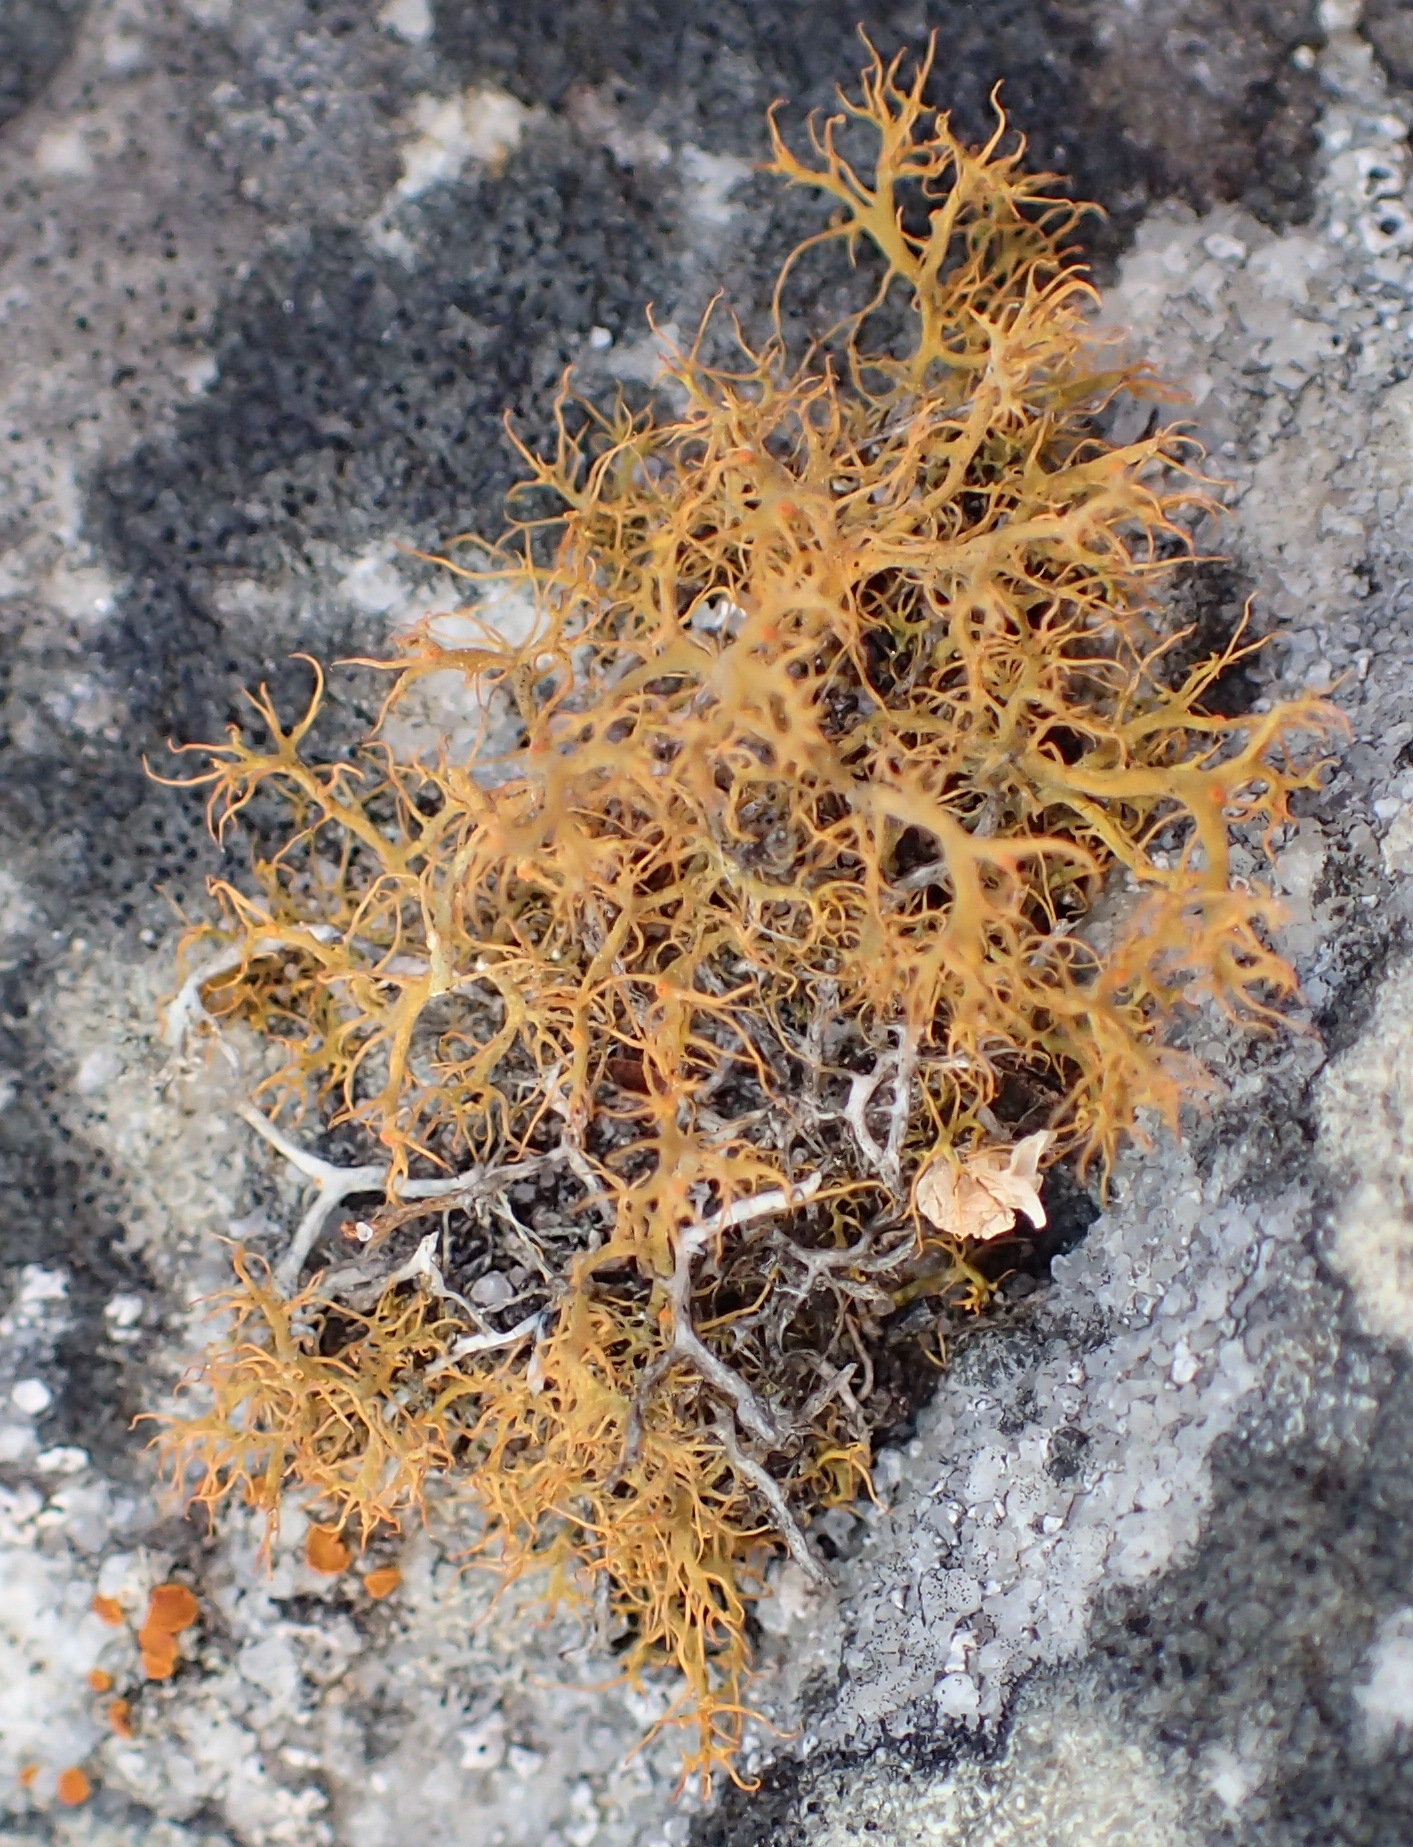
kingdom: Fungi
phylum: Ascomycota
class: Lecanoromycetes
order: Teloschistales
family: Teloschistaceae
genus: Teloschistes
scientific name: Teloschistes capensis
